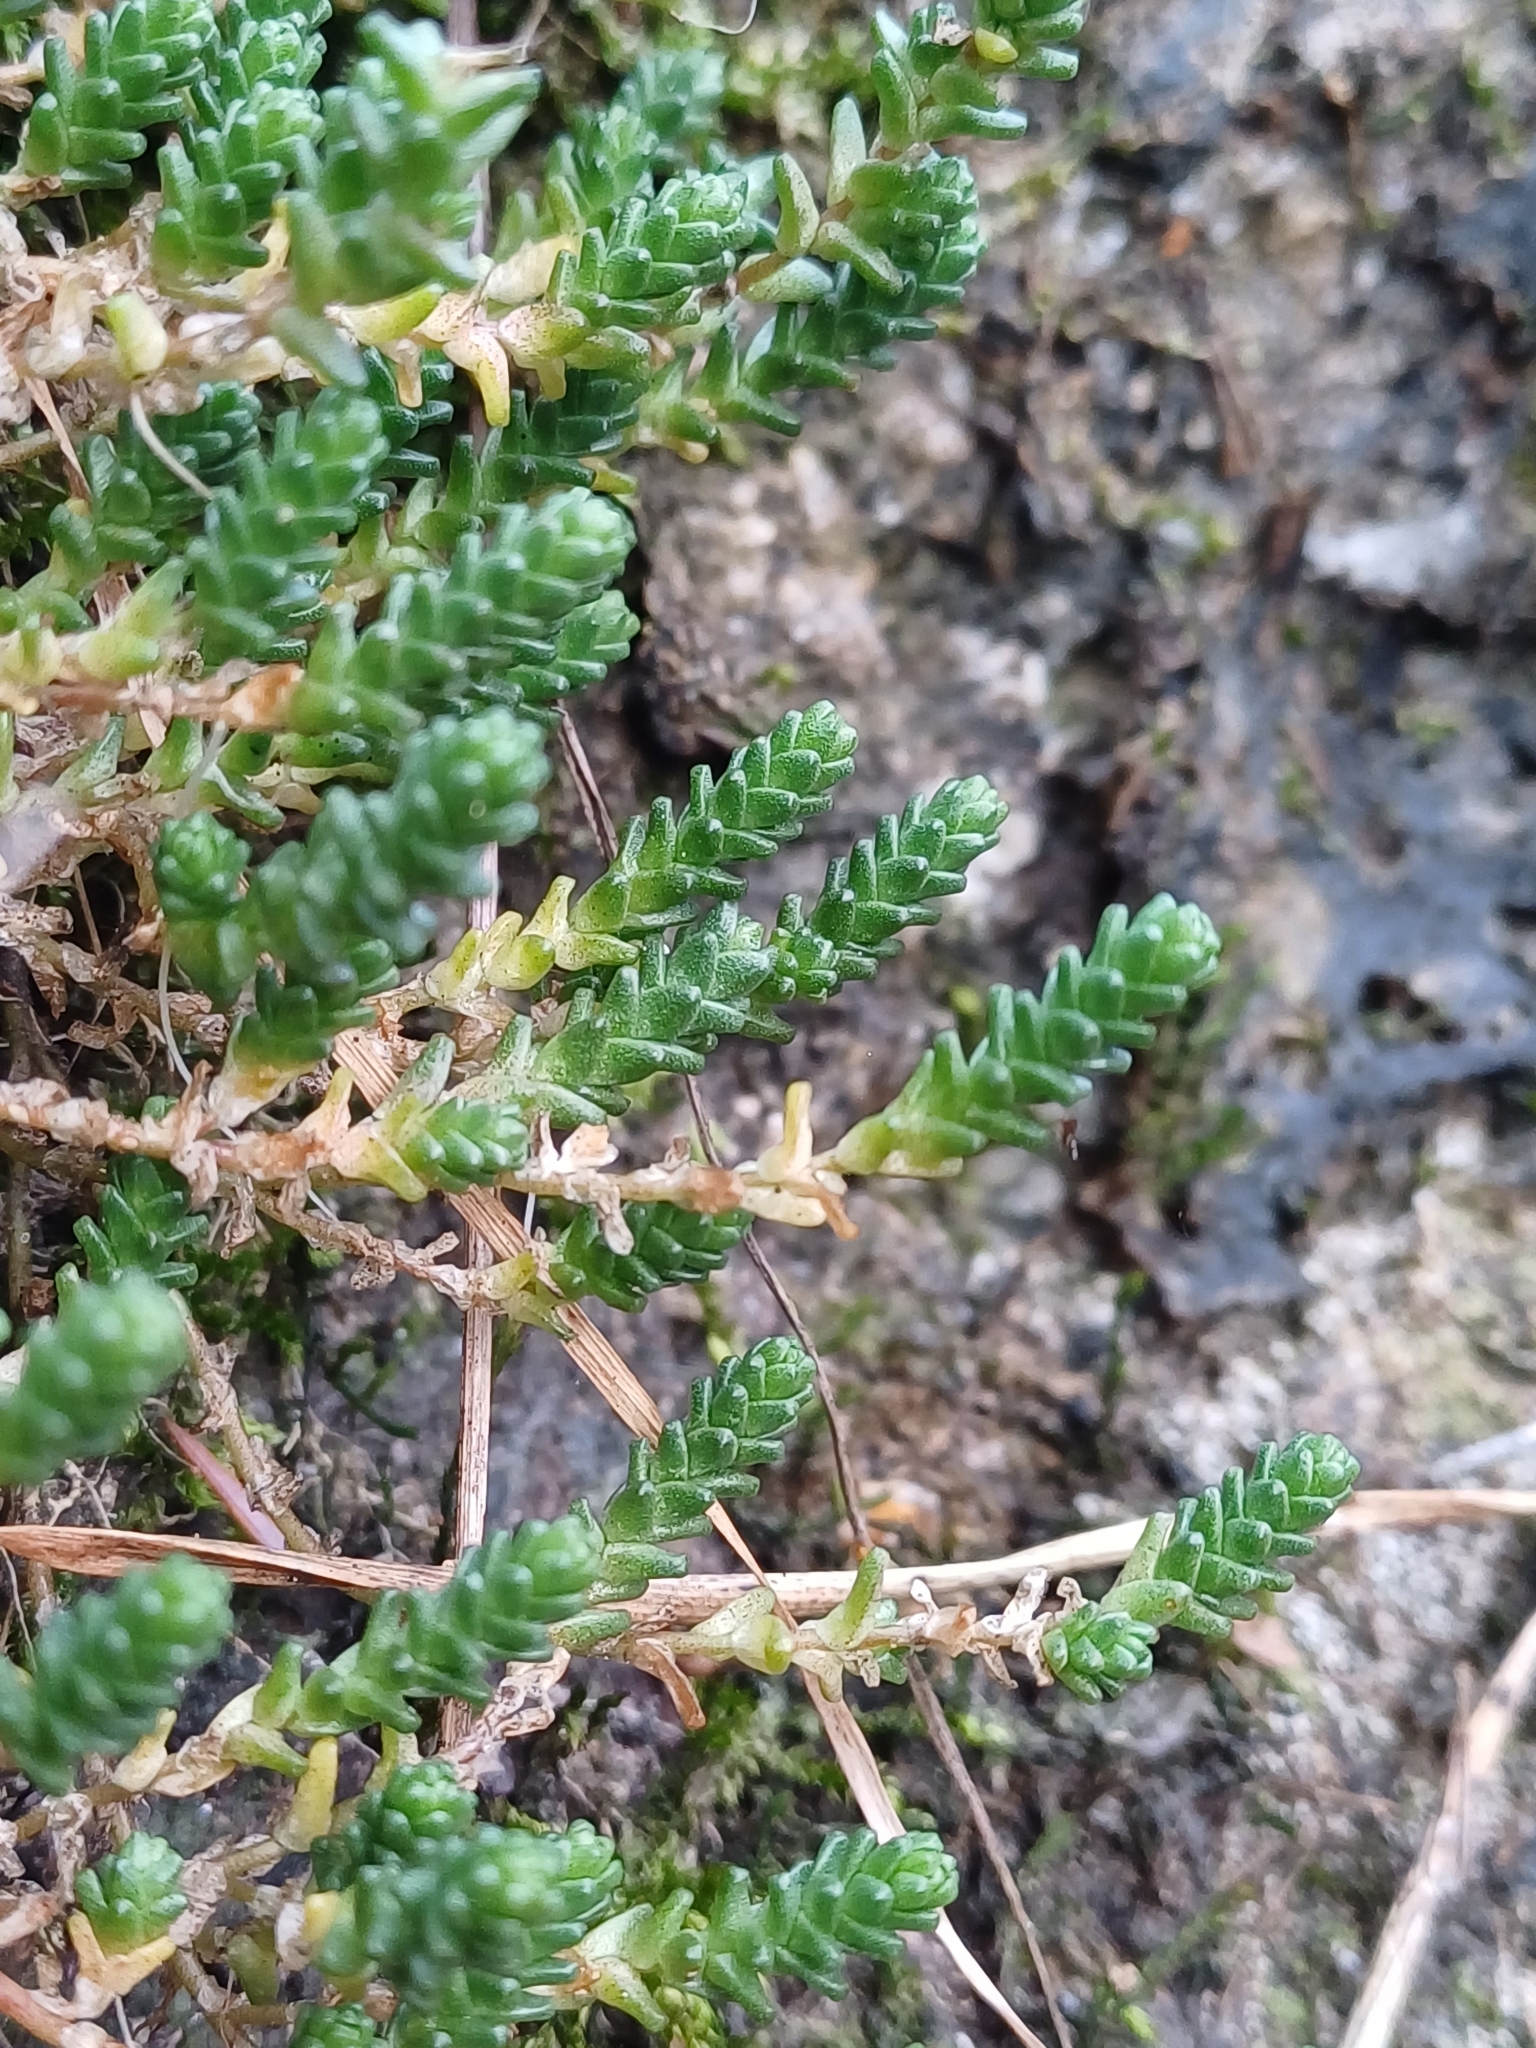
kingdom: Plantae
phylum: Tracheophyta
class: Magnoliopsida
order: Saxifragales
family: Crassulaceae
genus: Sedum
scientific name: Sedum acre
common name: Biting stonecrop
